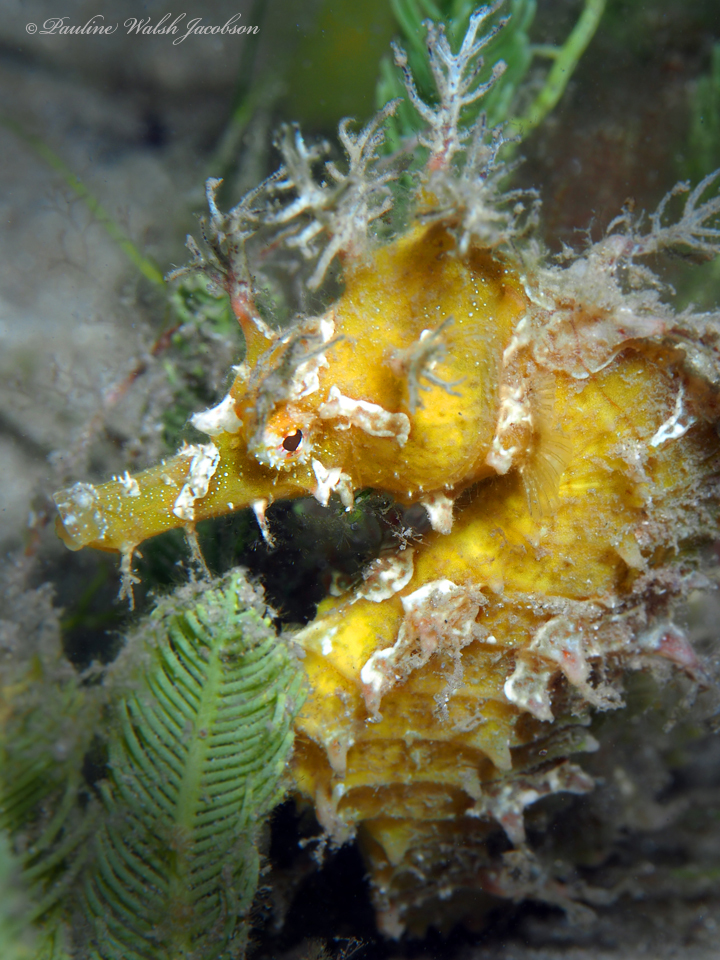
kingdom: Animalia
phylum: Chordata
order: Syngnathiformes
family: Syngnathidae
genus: Hippocampus
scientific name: Hippocampus erectus
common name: Lined seahorse
